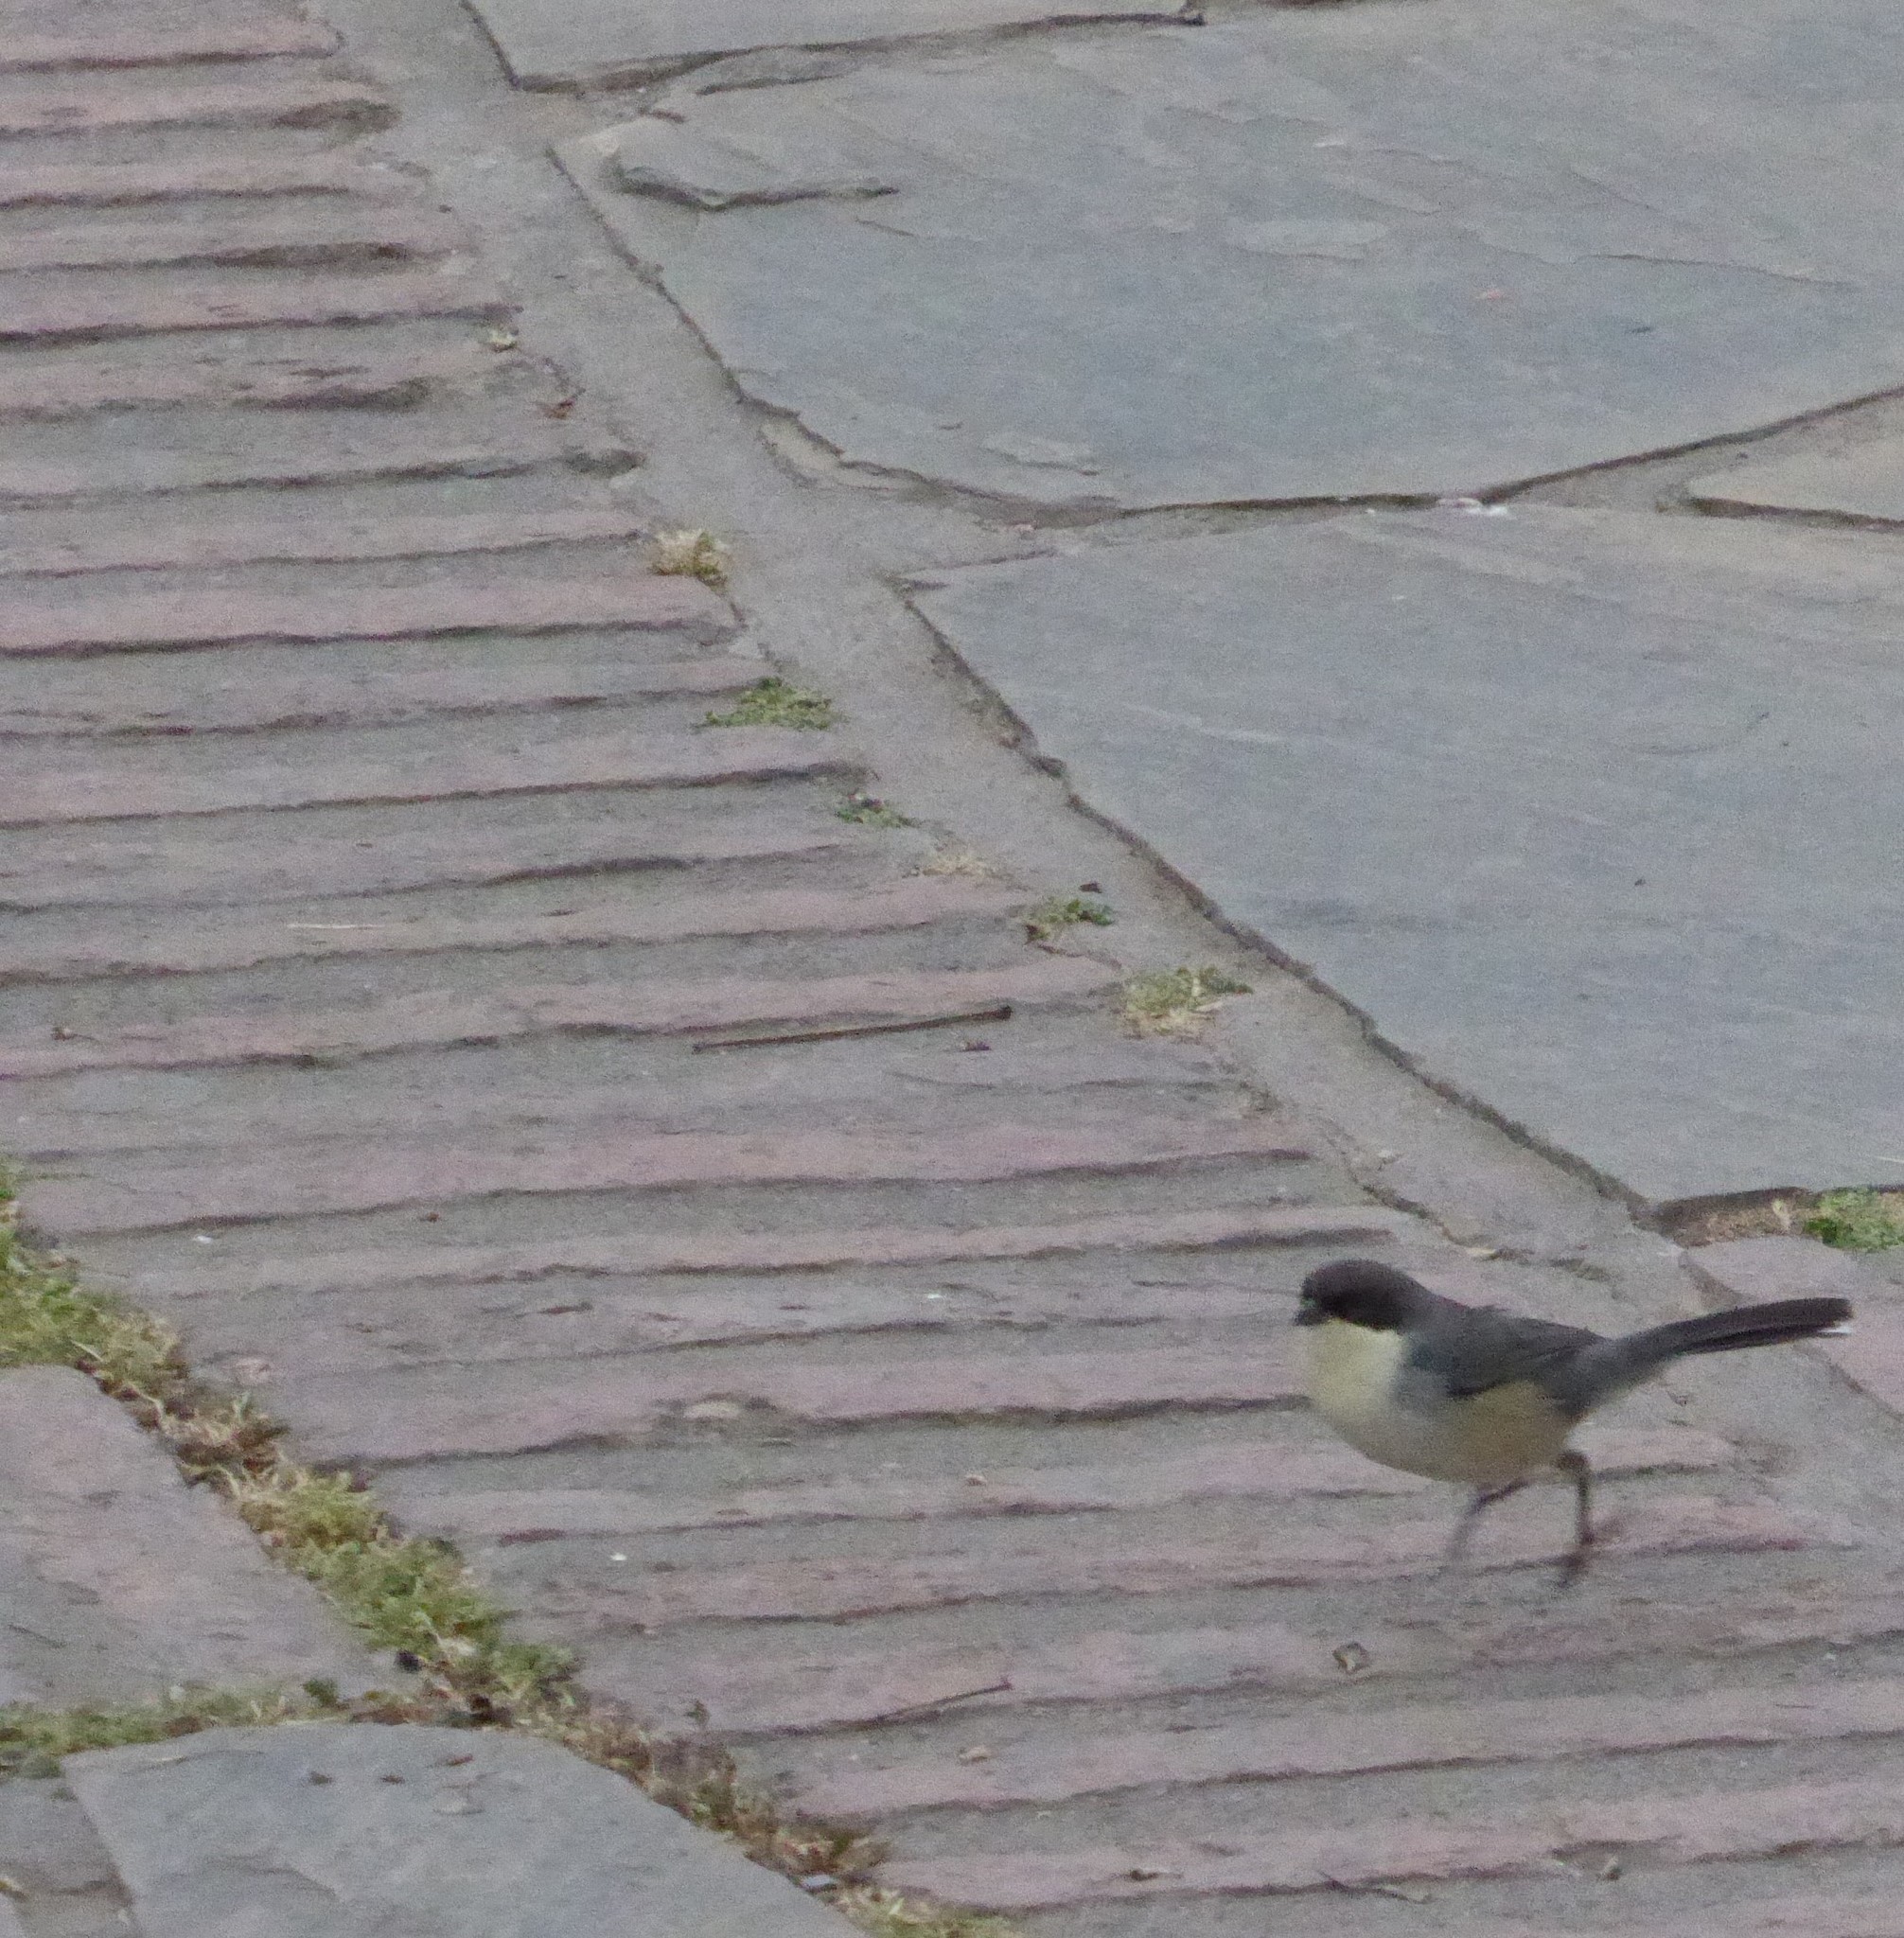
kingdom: Animalia
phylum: Chordata
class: Aves
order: Passeriformes
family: Thraupidae
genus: Microspingus
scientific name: Microspingus melanoleucus
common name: Black-capped warbling-finch
